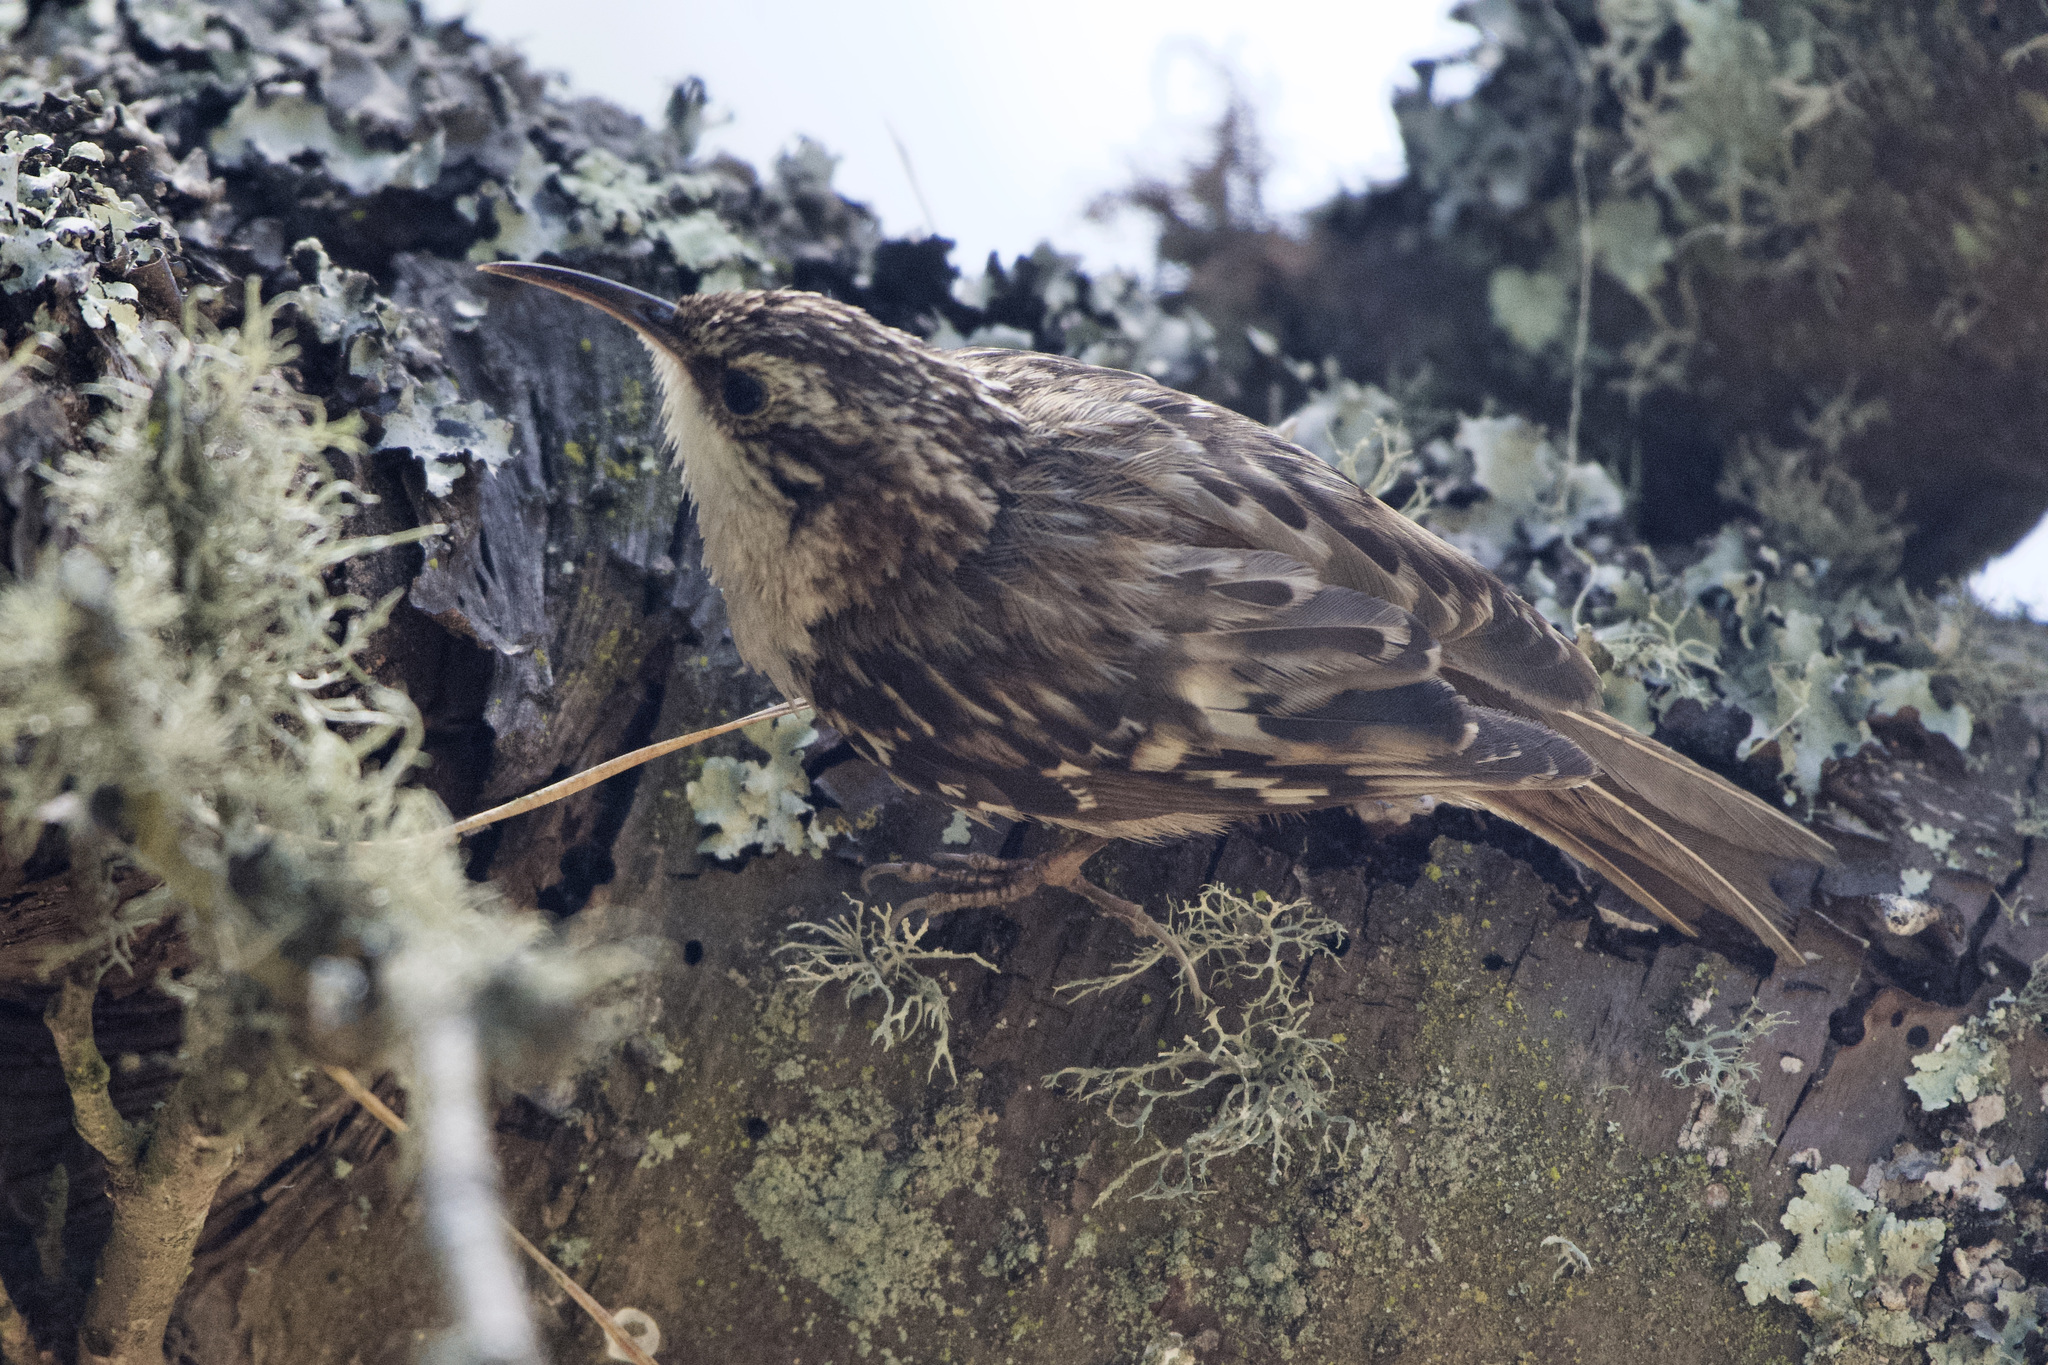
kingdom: Animalia
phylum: Chordata
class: Aves
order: Passeriformes
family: Certhiidae
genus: Certhia
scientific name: Certhia americana
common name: Brown creeper
